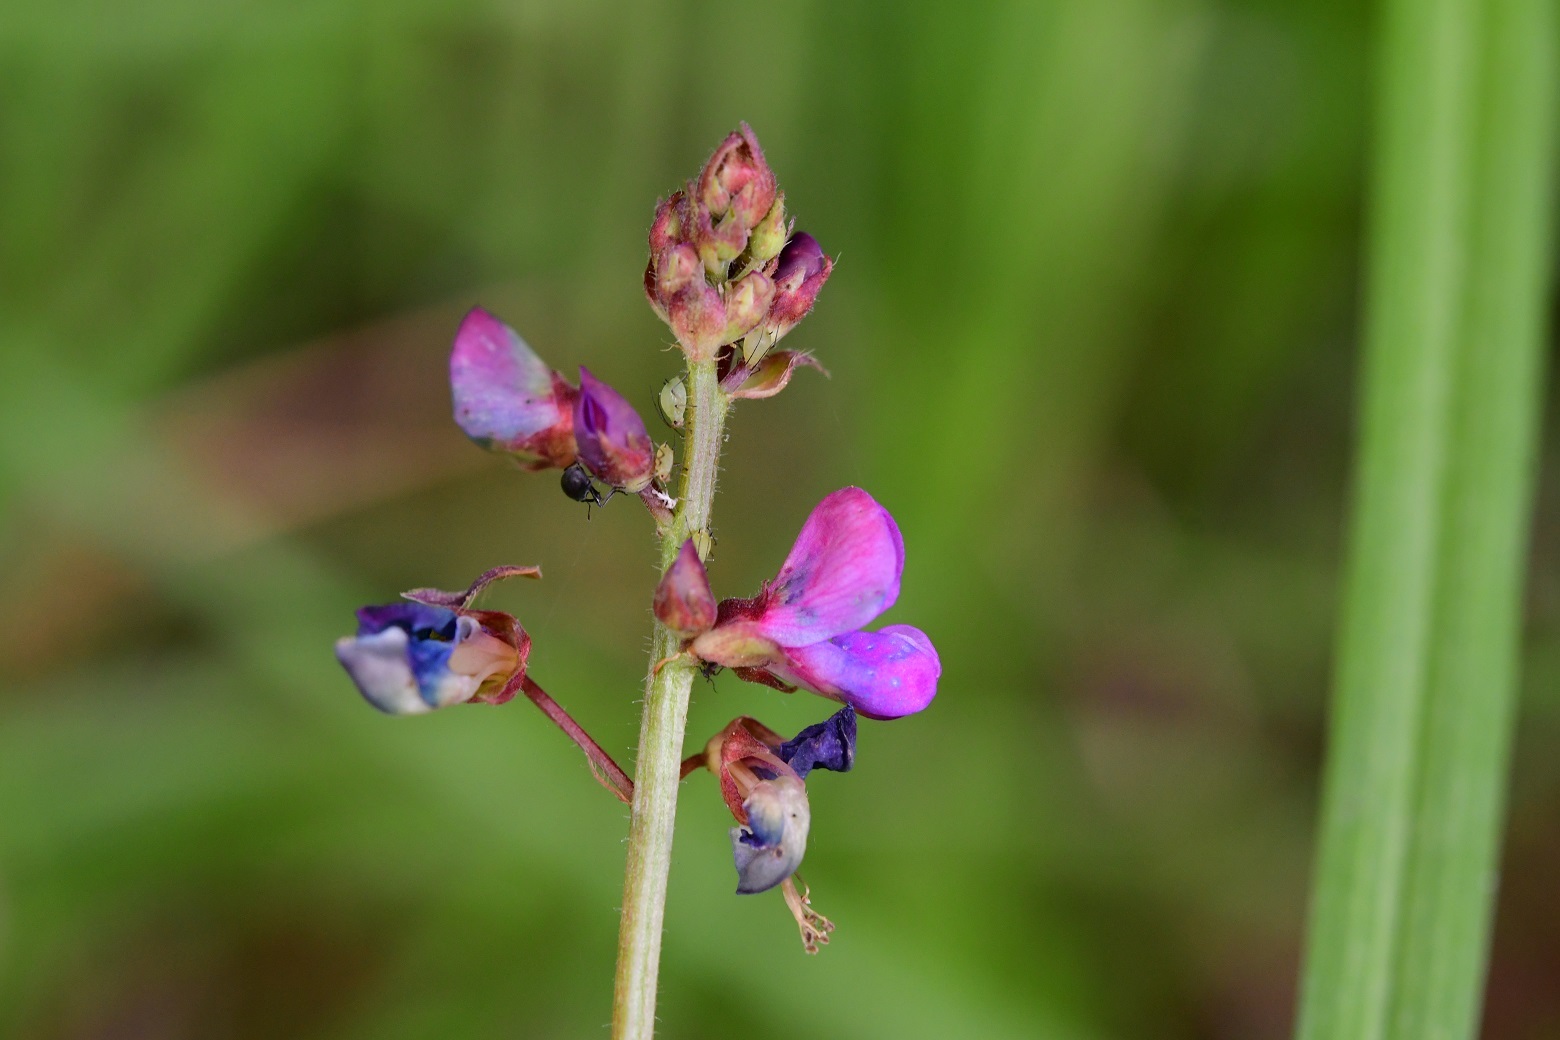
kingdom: Plantae
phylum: Tracheophyta
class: Magnoliopsida
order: Fabales
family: Fabaceae
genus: Desmodium
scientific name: Desmodium palmeri
